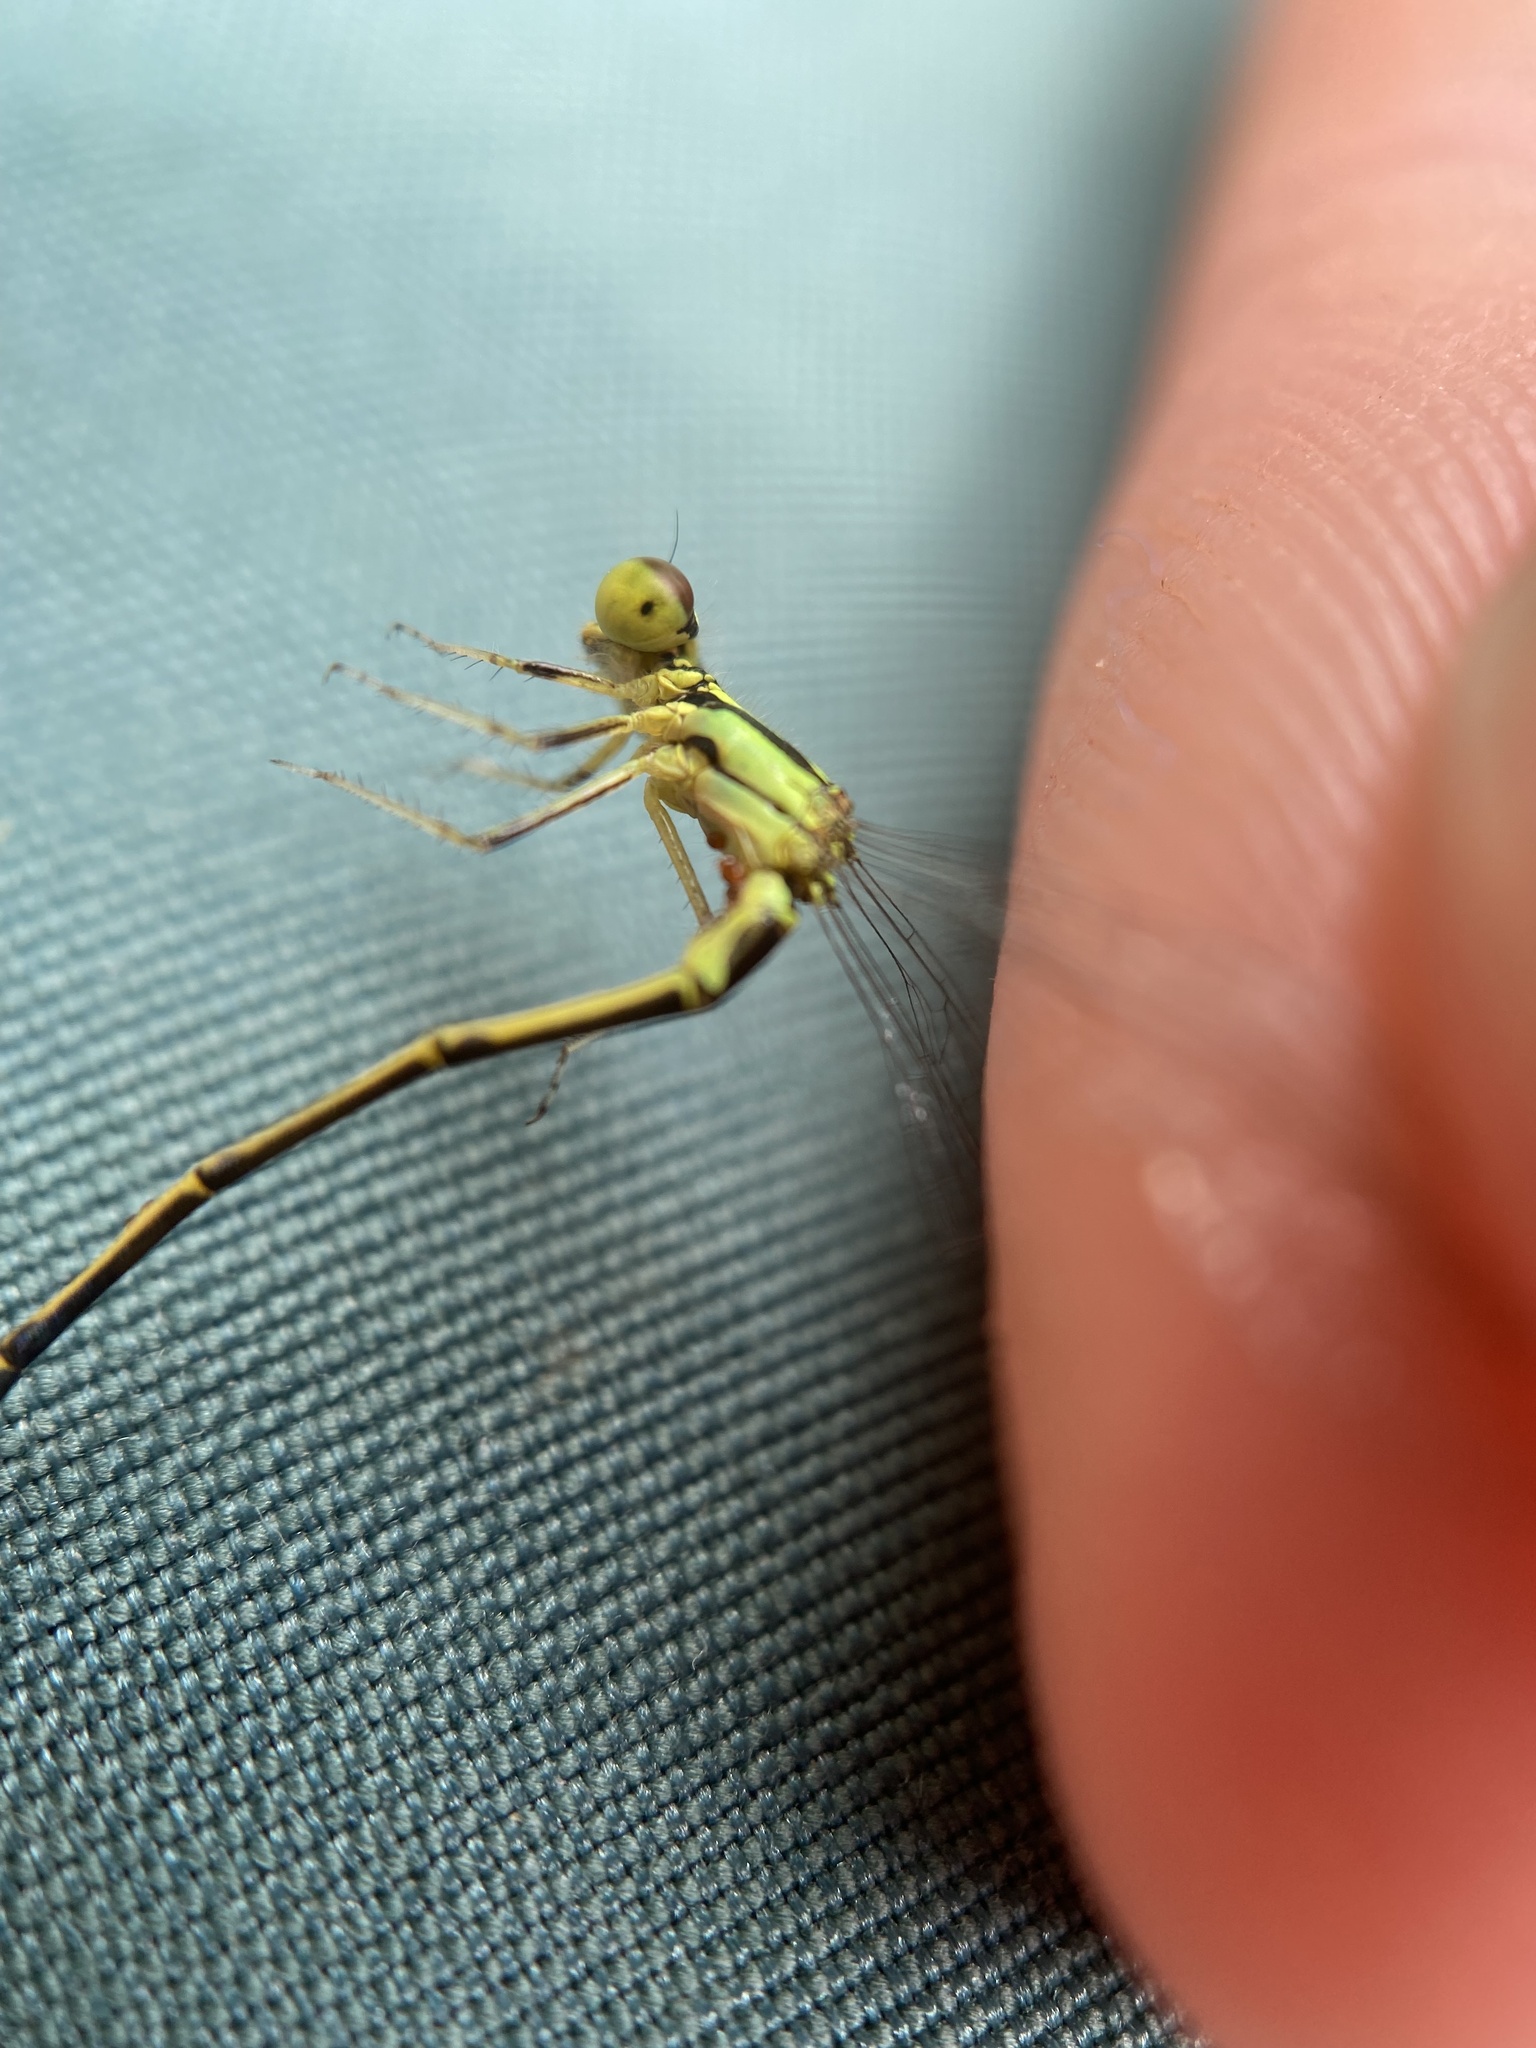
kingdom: Animalia
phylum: Arthropoda
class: Insecta
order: Odonata
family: Coenagrionidae
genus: Ischnura
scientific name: Ischnura posita
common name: Fragile forktail
